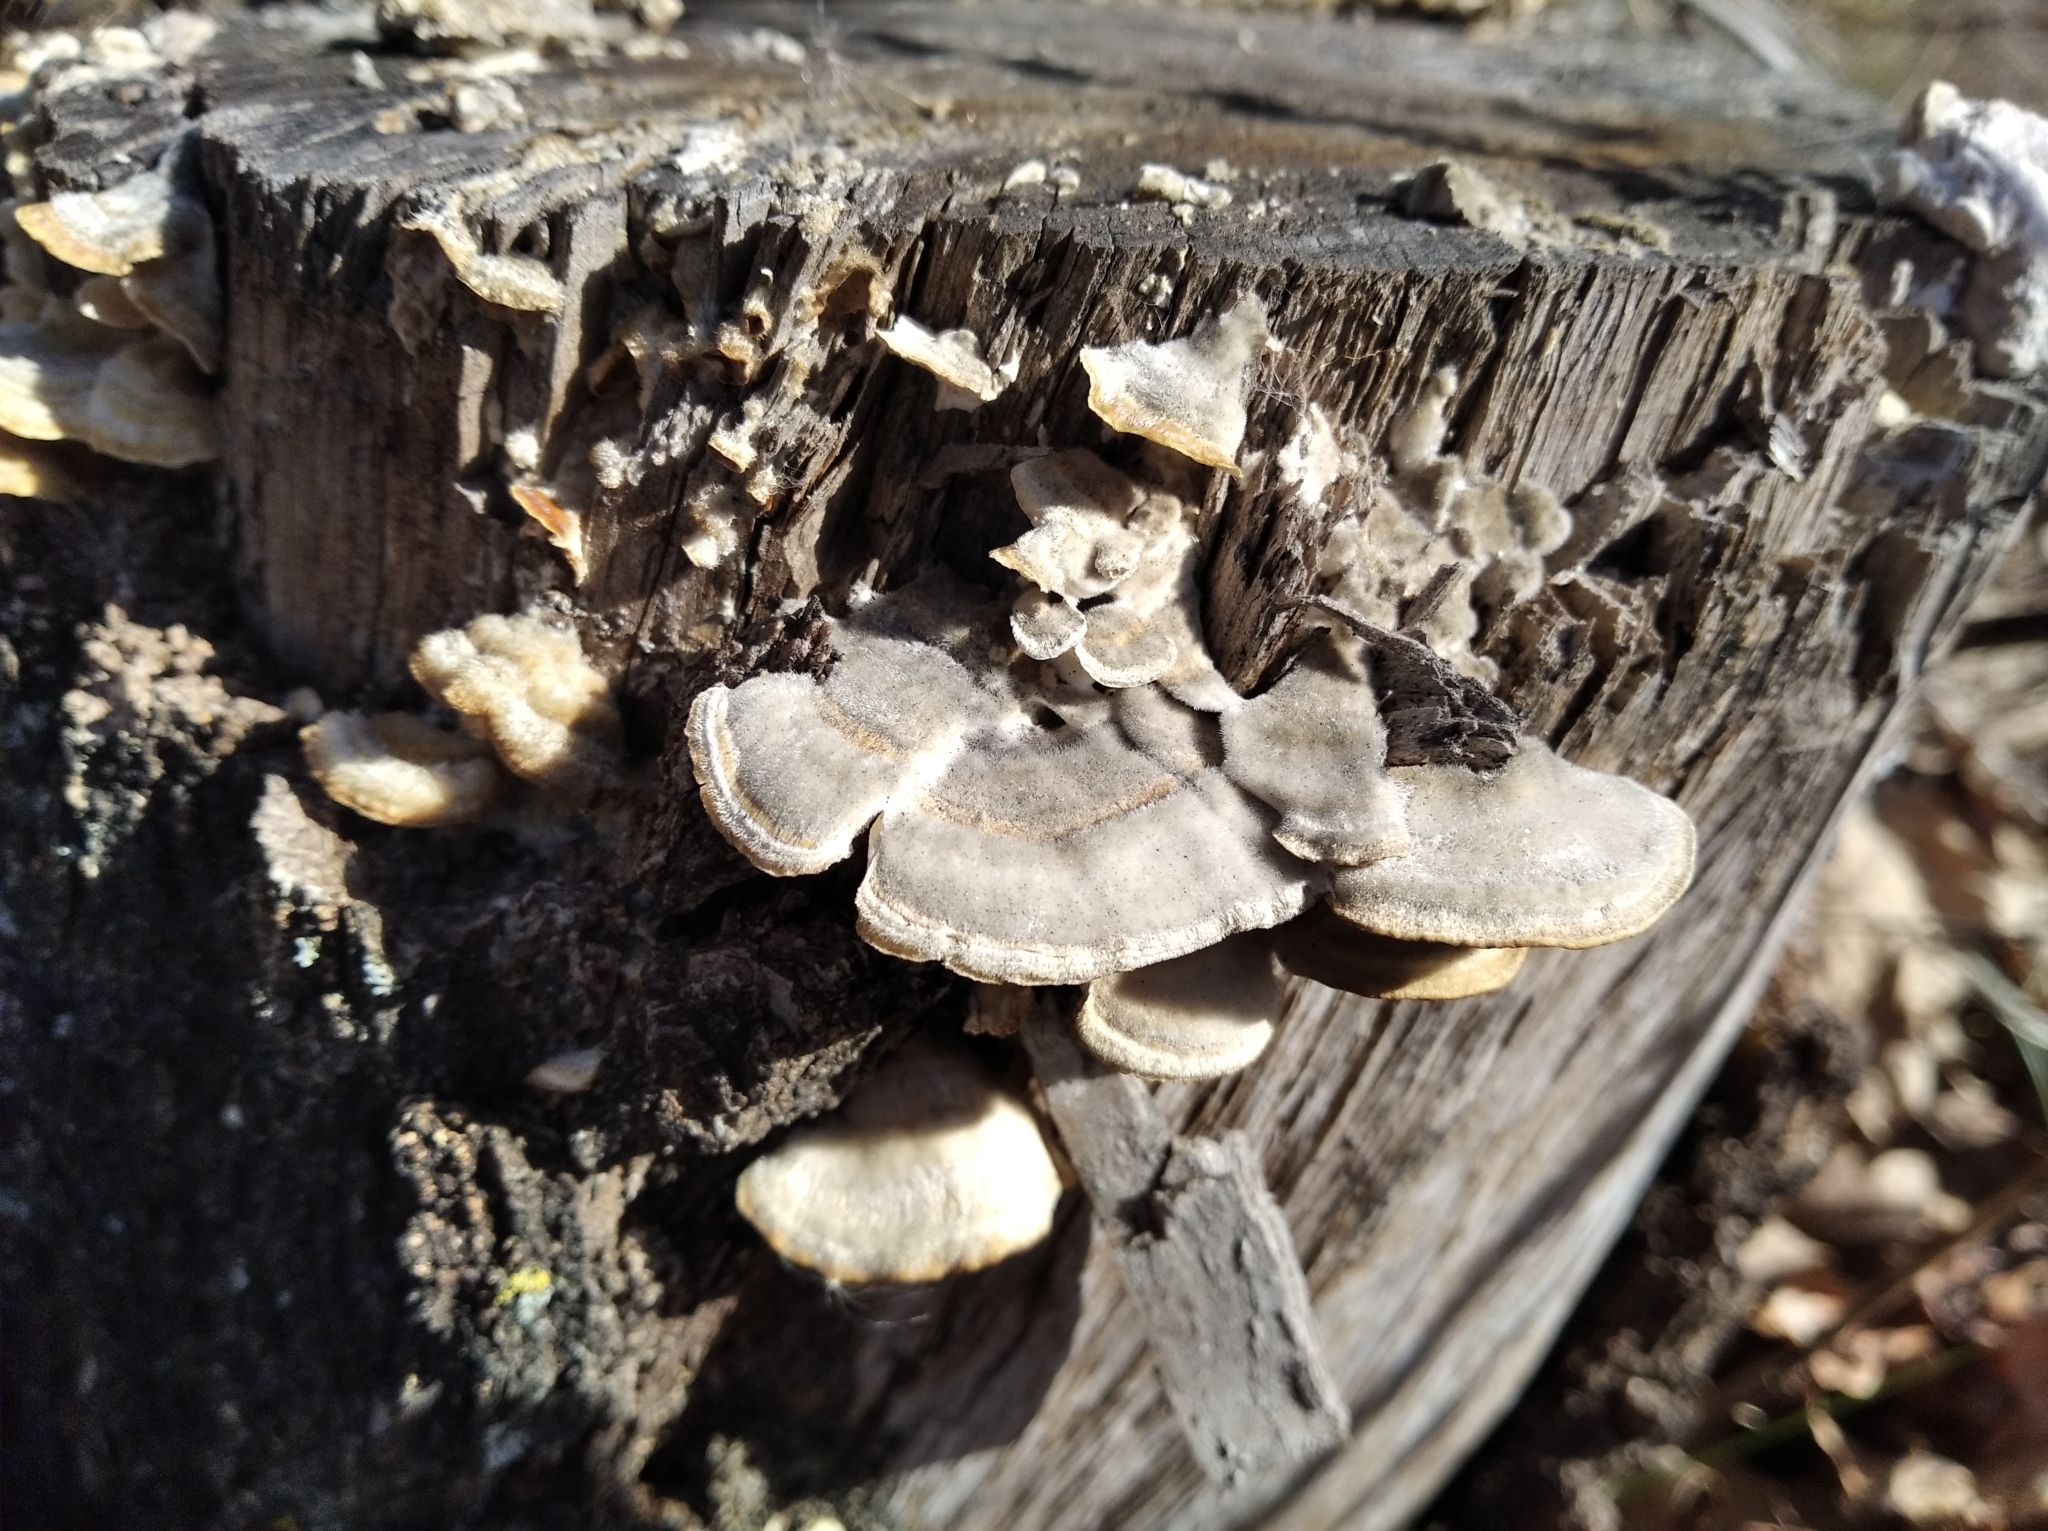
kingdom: Fungi
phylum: Basidiomycota
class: Agaricomycetes
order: Polyporales
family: Polyporaceae
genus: Trametes
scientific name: Trametes hirsuta
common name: Hairy bracket
